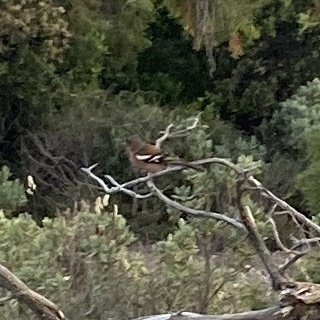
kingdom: Animalia
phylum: Chordata
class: Aves
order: Passeriformes
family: Fringillidae
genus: Fringilla
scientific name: Fringilla coelebs
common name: Common chaffinch
